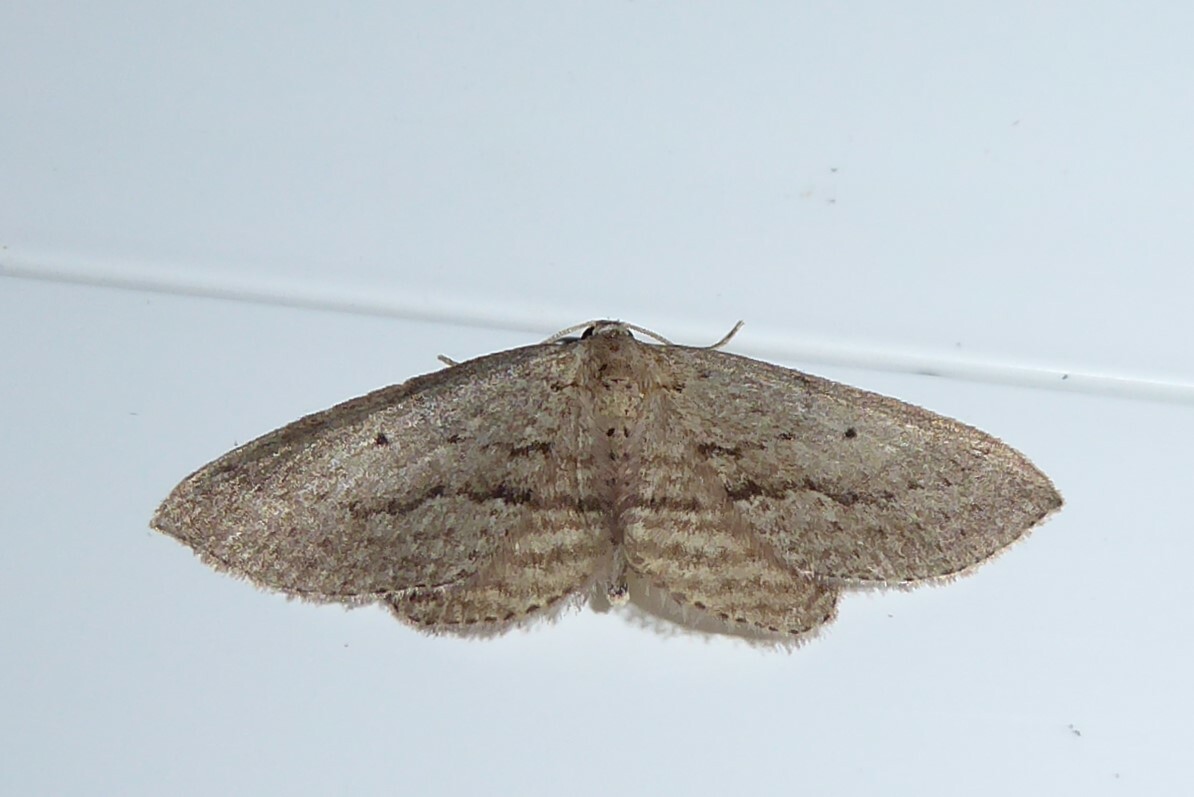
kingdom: Animalia
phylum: Arthropoda
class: Insecta
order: Lepidoptera
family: Geometridae
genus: Poecilasthena
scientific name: Poecilasthena schistaria
